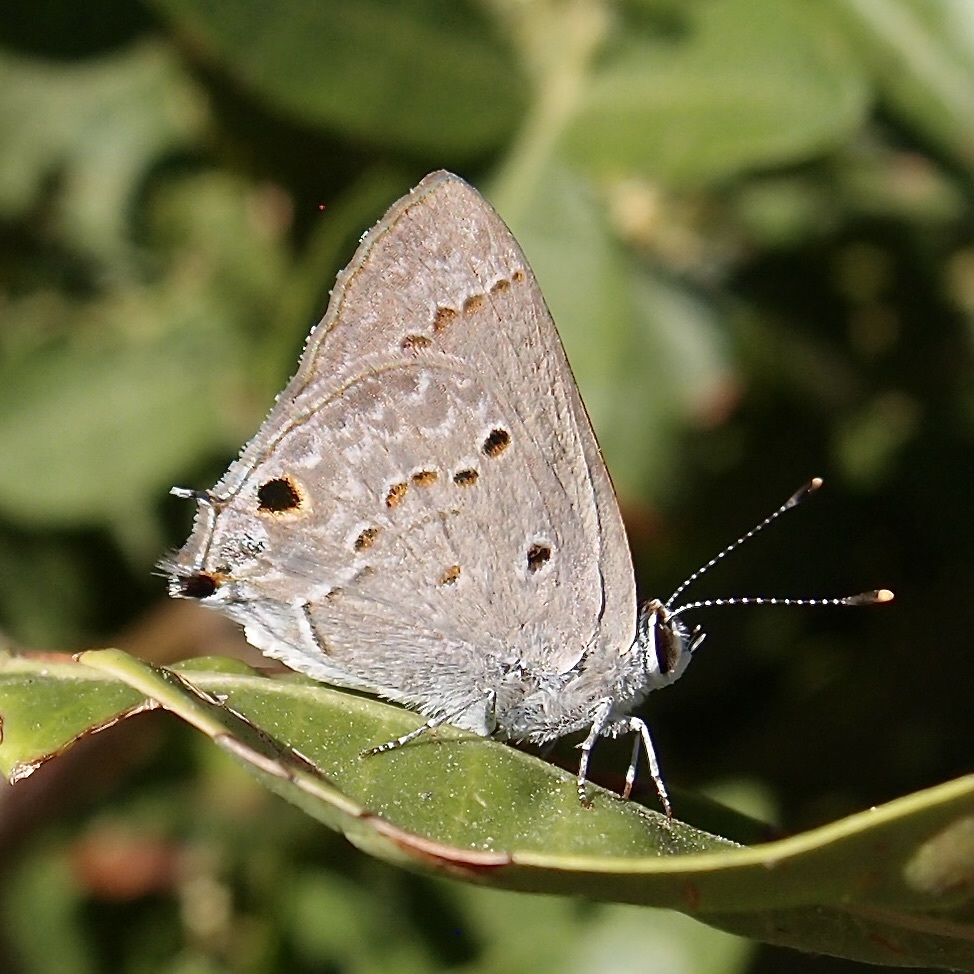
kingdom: Animalia
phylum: Arthropoda
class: Insecta
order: Lepidoptera
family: Lycaenidae
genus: Callicista
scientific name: Callicista columella
